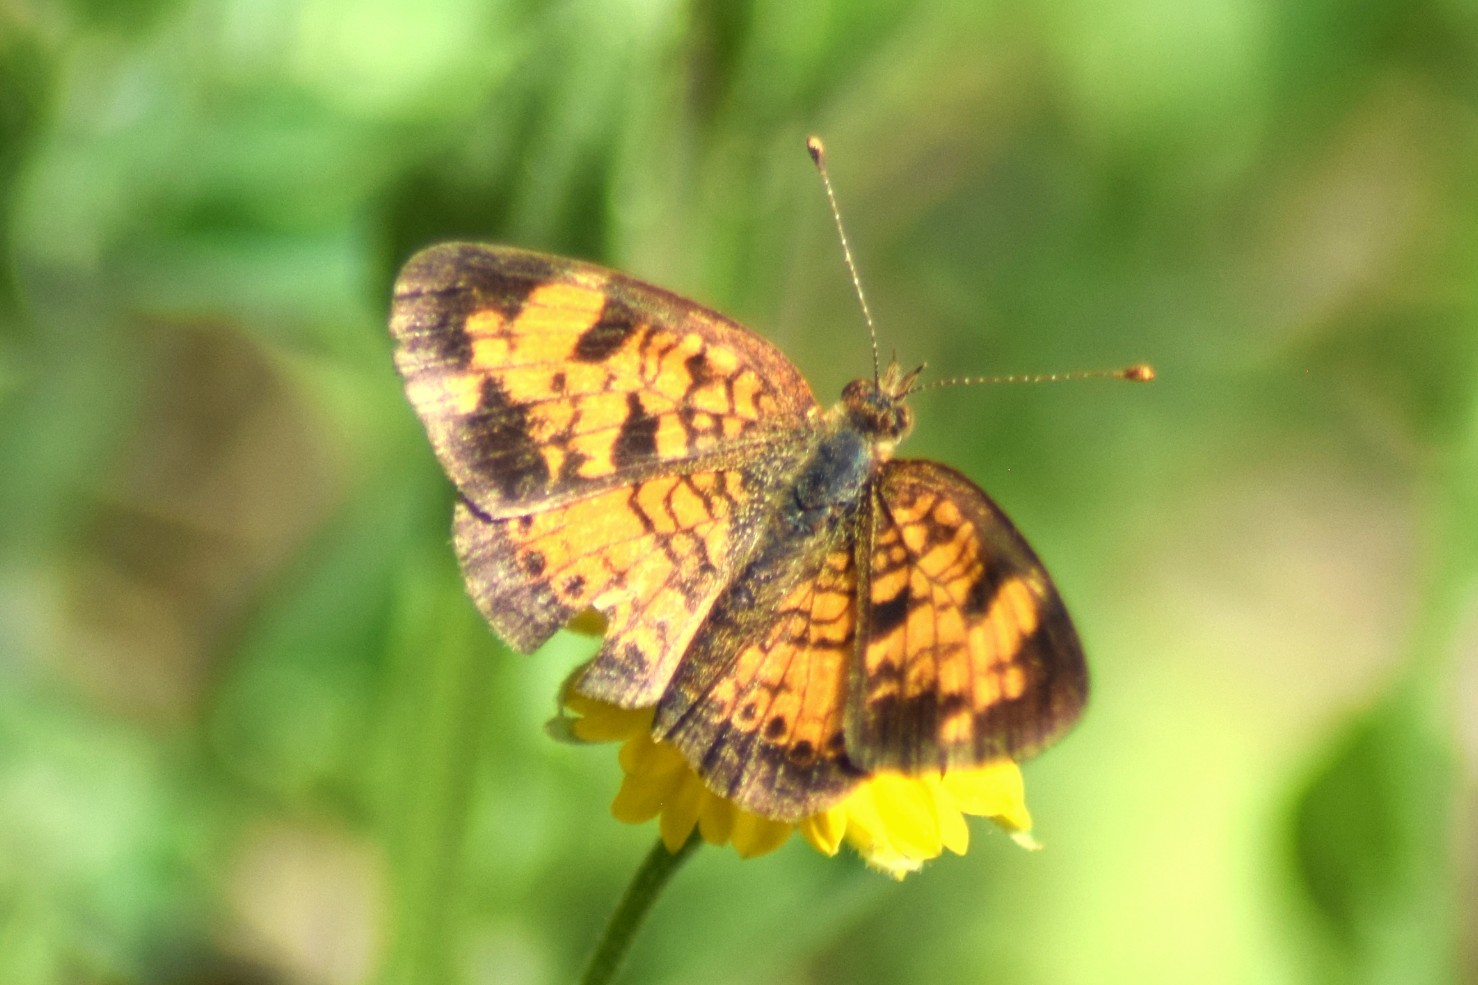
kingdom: Animalia
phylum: Arthropoda
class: Insecta
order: Lepidoptera
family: Nymphalidae
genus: Phyciodes
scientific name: Phyciodes tharos
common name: Pearl crescent
